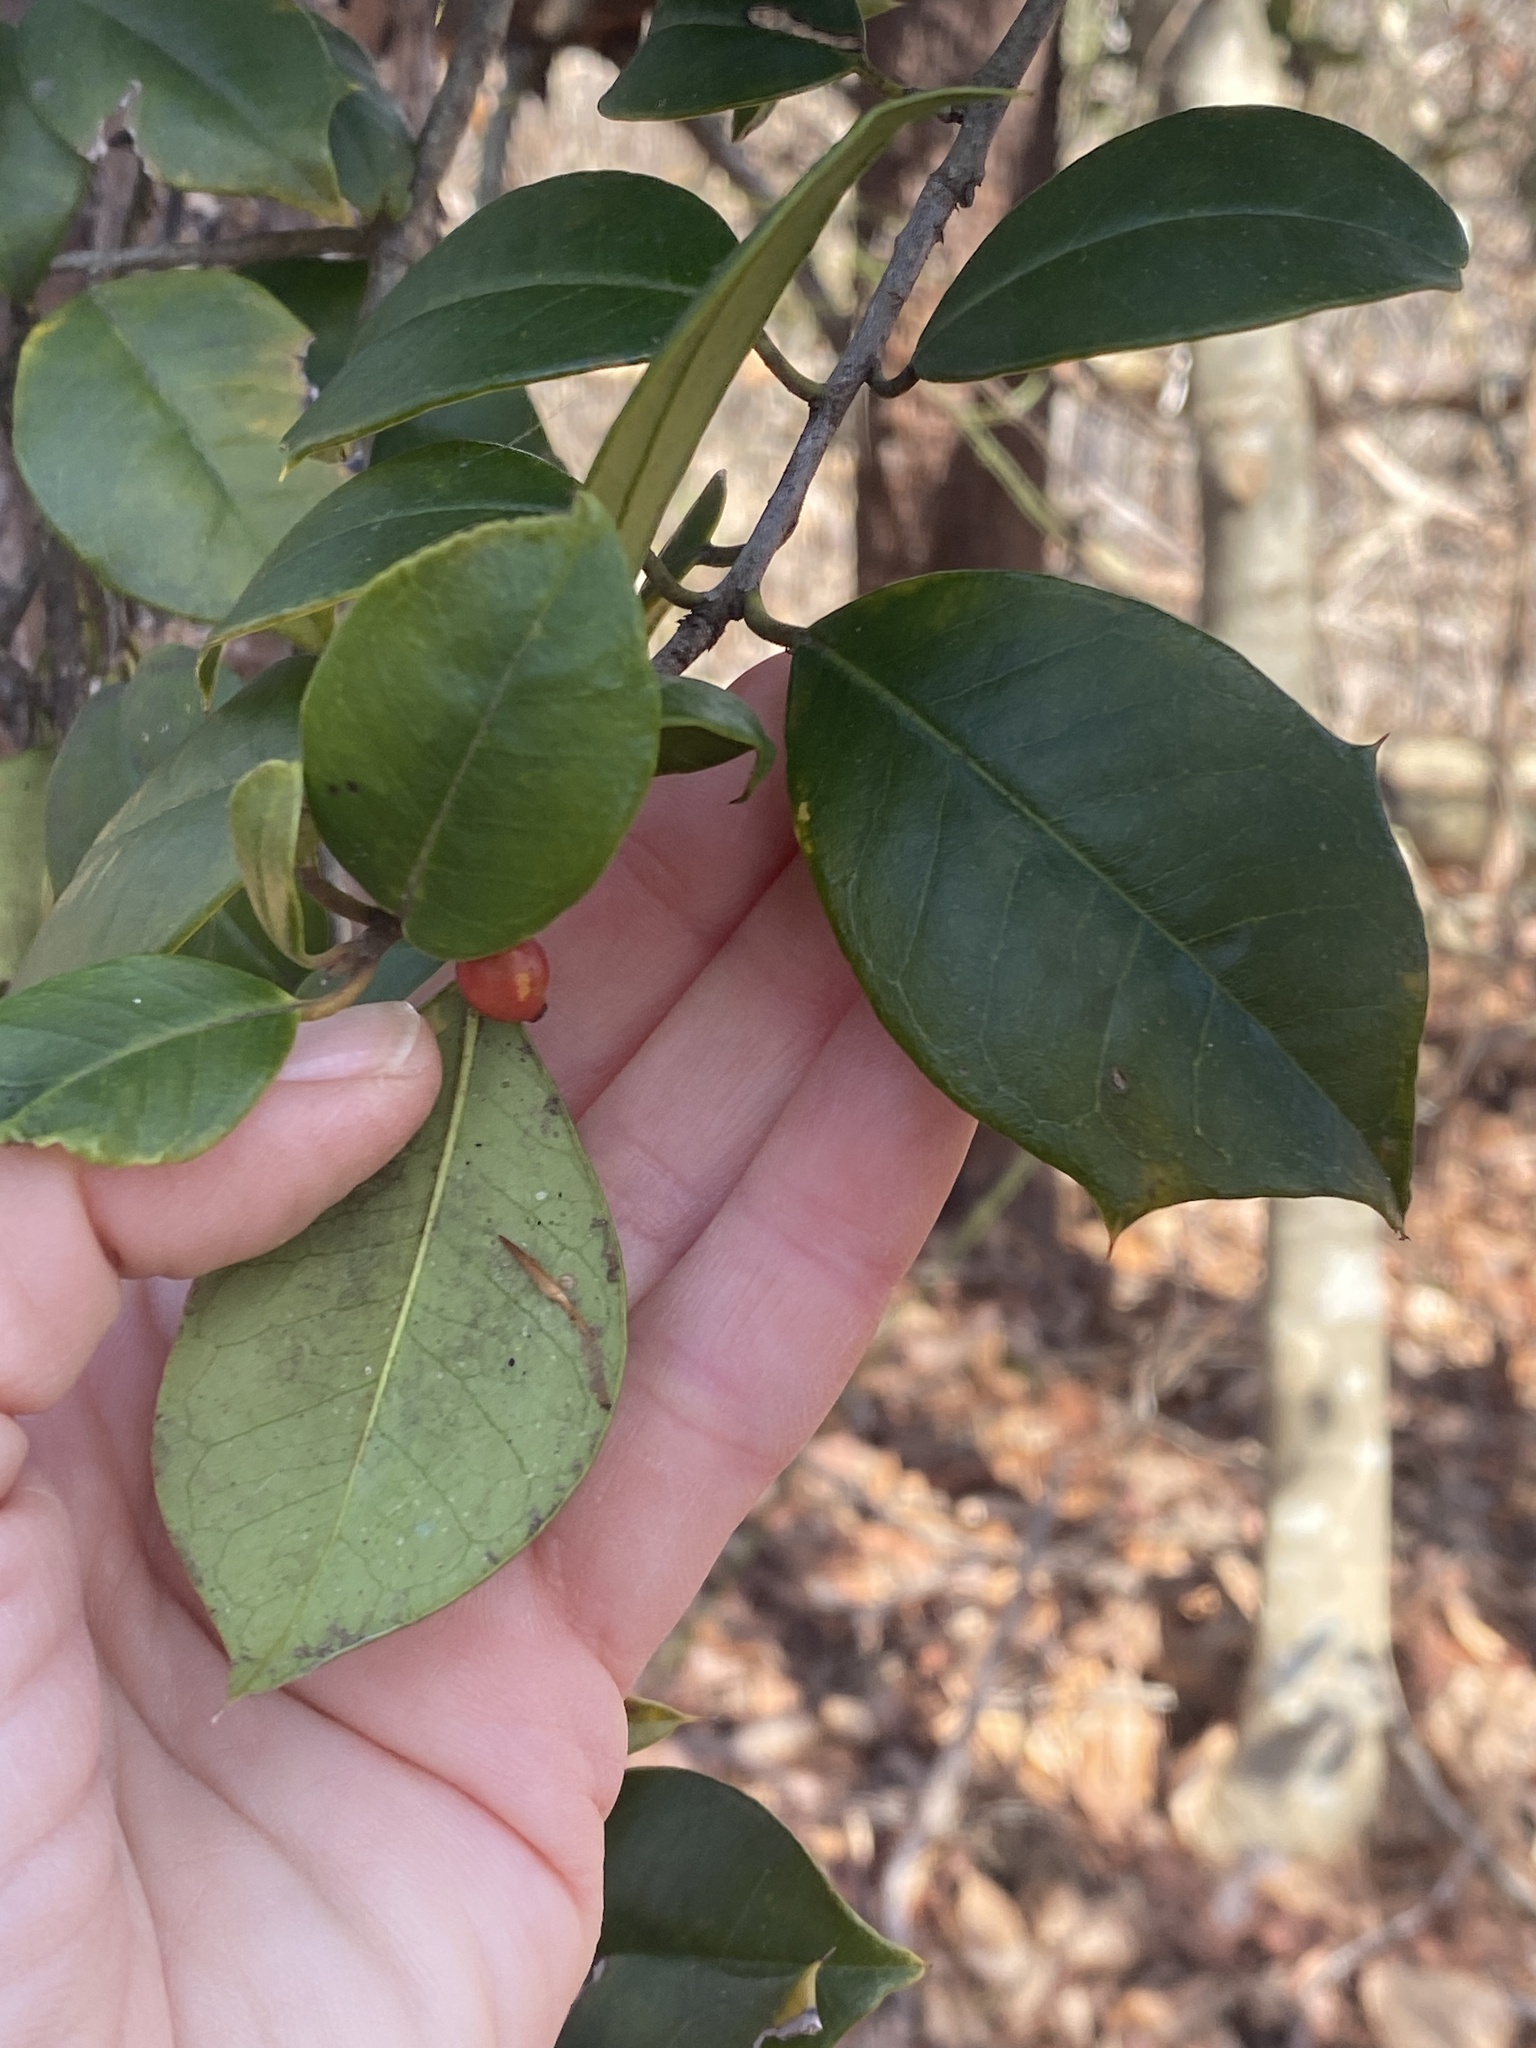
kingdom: Plantae
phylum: Tracheophyta
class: Magnoliopsida
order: Aquifoliales
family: Aquifoliaceae
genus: Ilex
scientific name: Ilex opaca
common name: American holly
